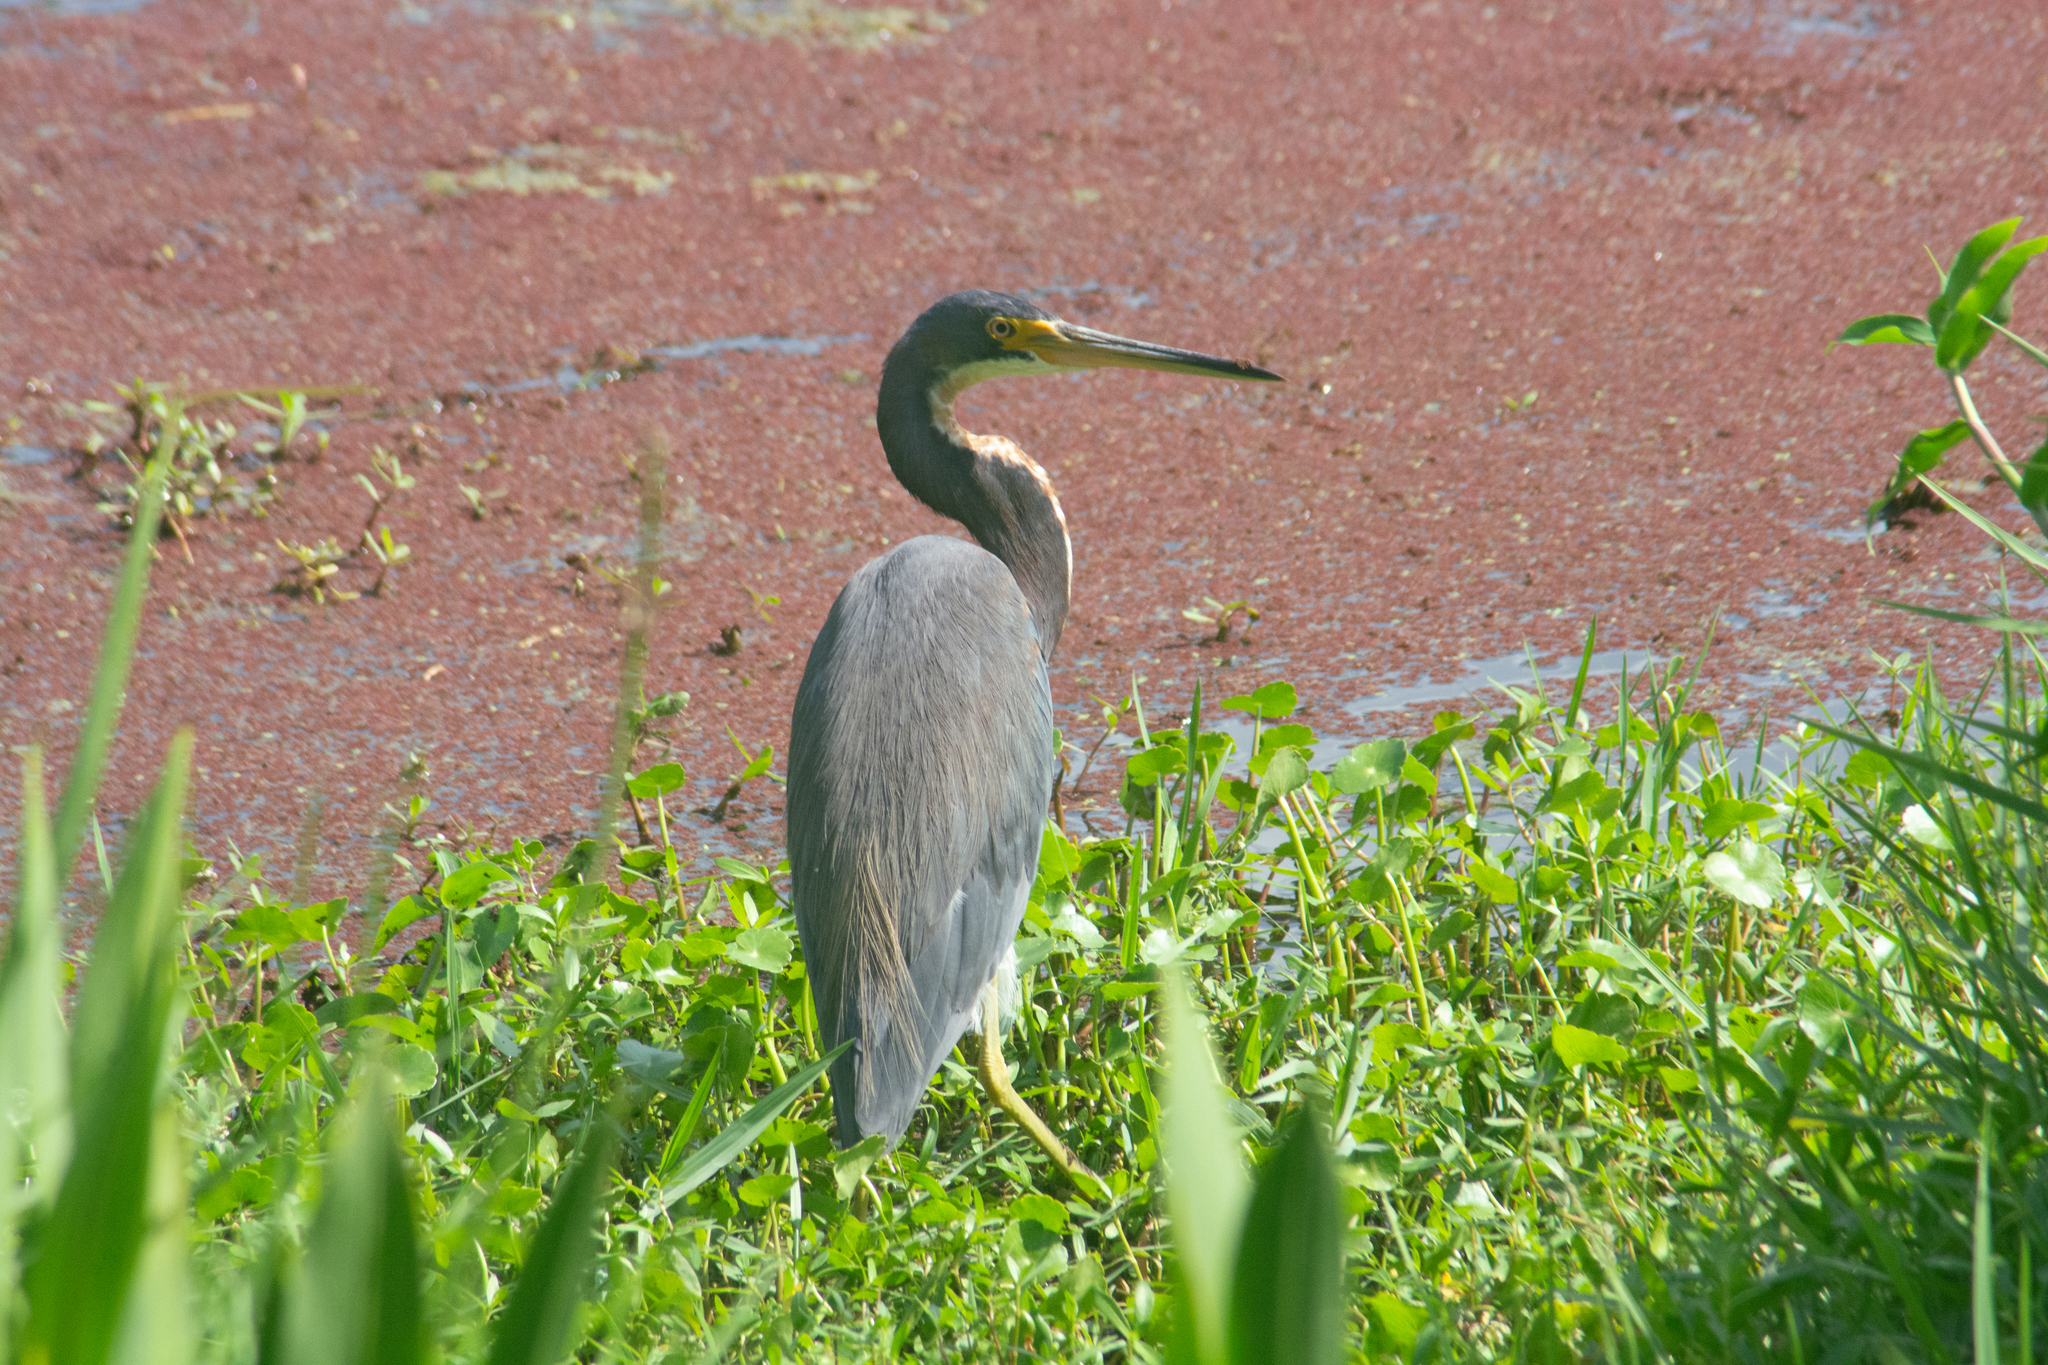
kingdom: Animalia
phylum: Chordata
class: Aves
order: Pelecaniformes
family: Ardeidae
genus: Egretta
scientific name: Egretta tricolor
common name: Tricolored heron
